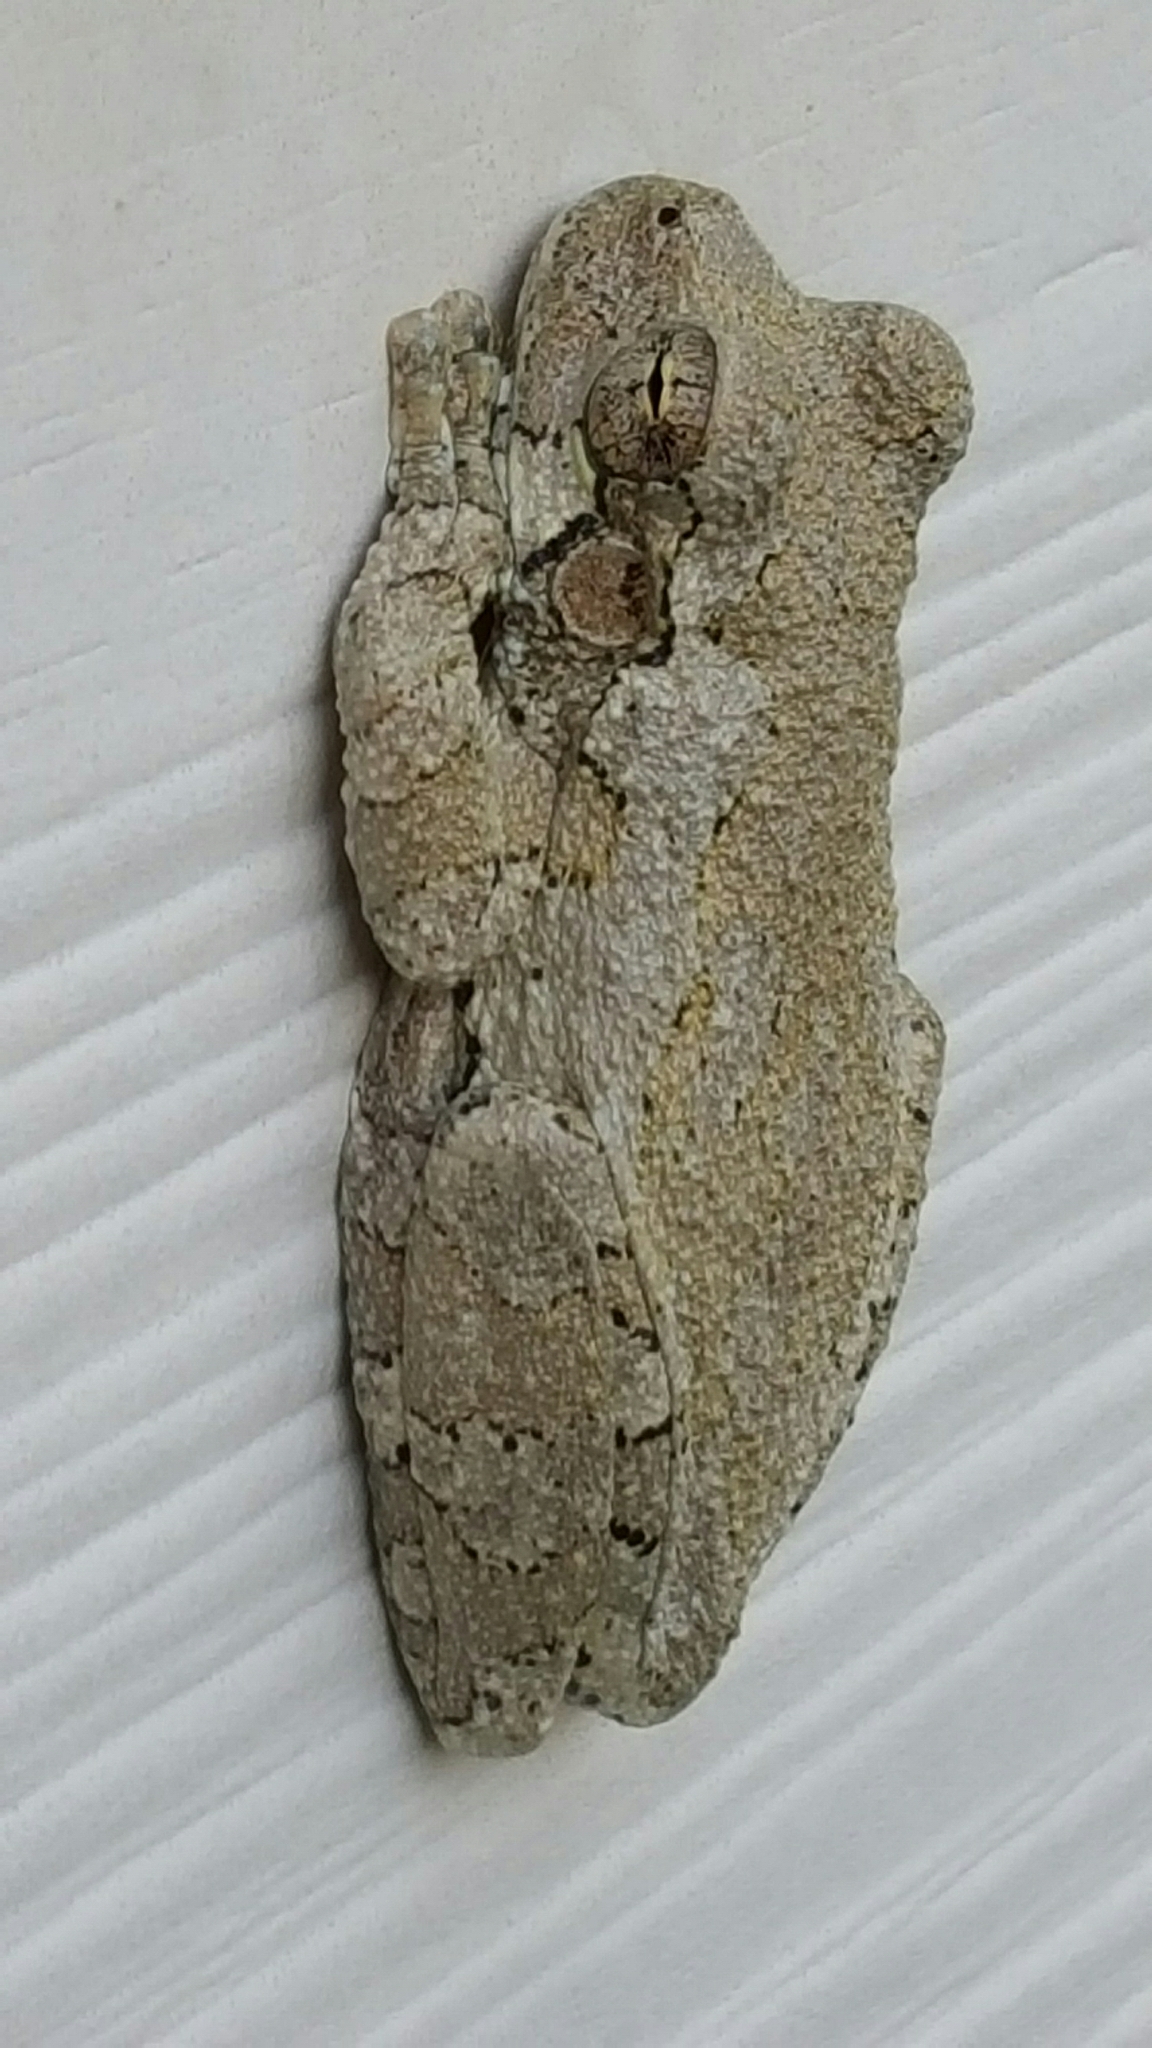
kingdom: Animalia
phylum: Chordata
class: Amphibia
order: Anura
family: Hylidae
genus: Dryophytes
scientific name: Dryophytes versicolor
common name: Gray treefrog
